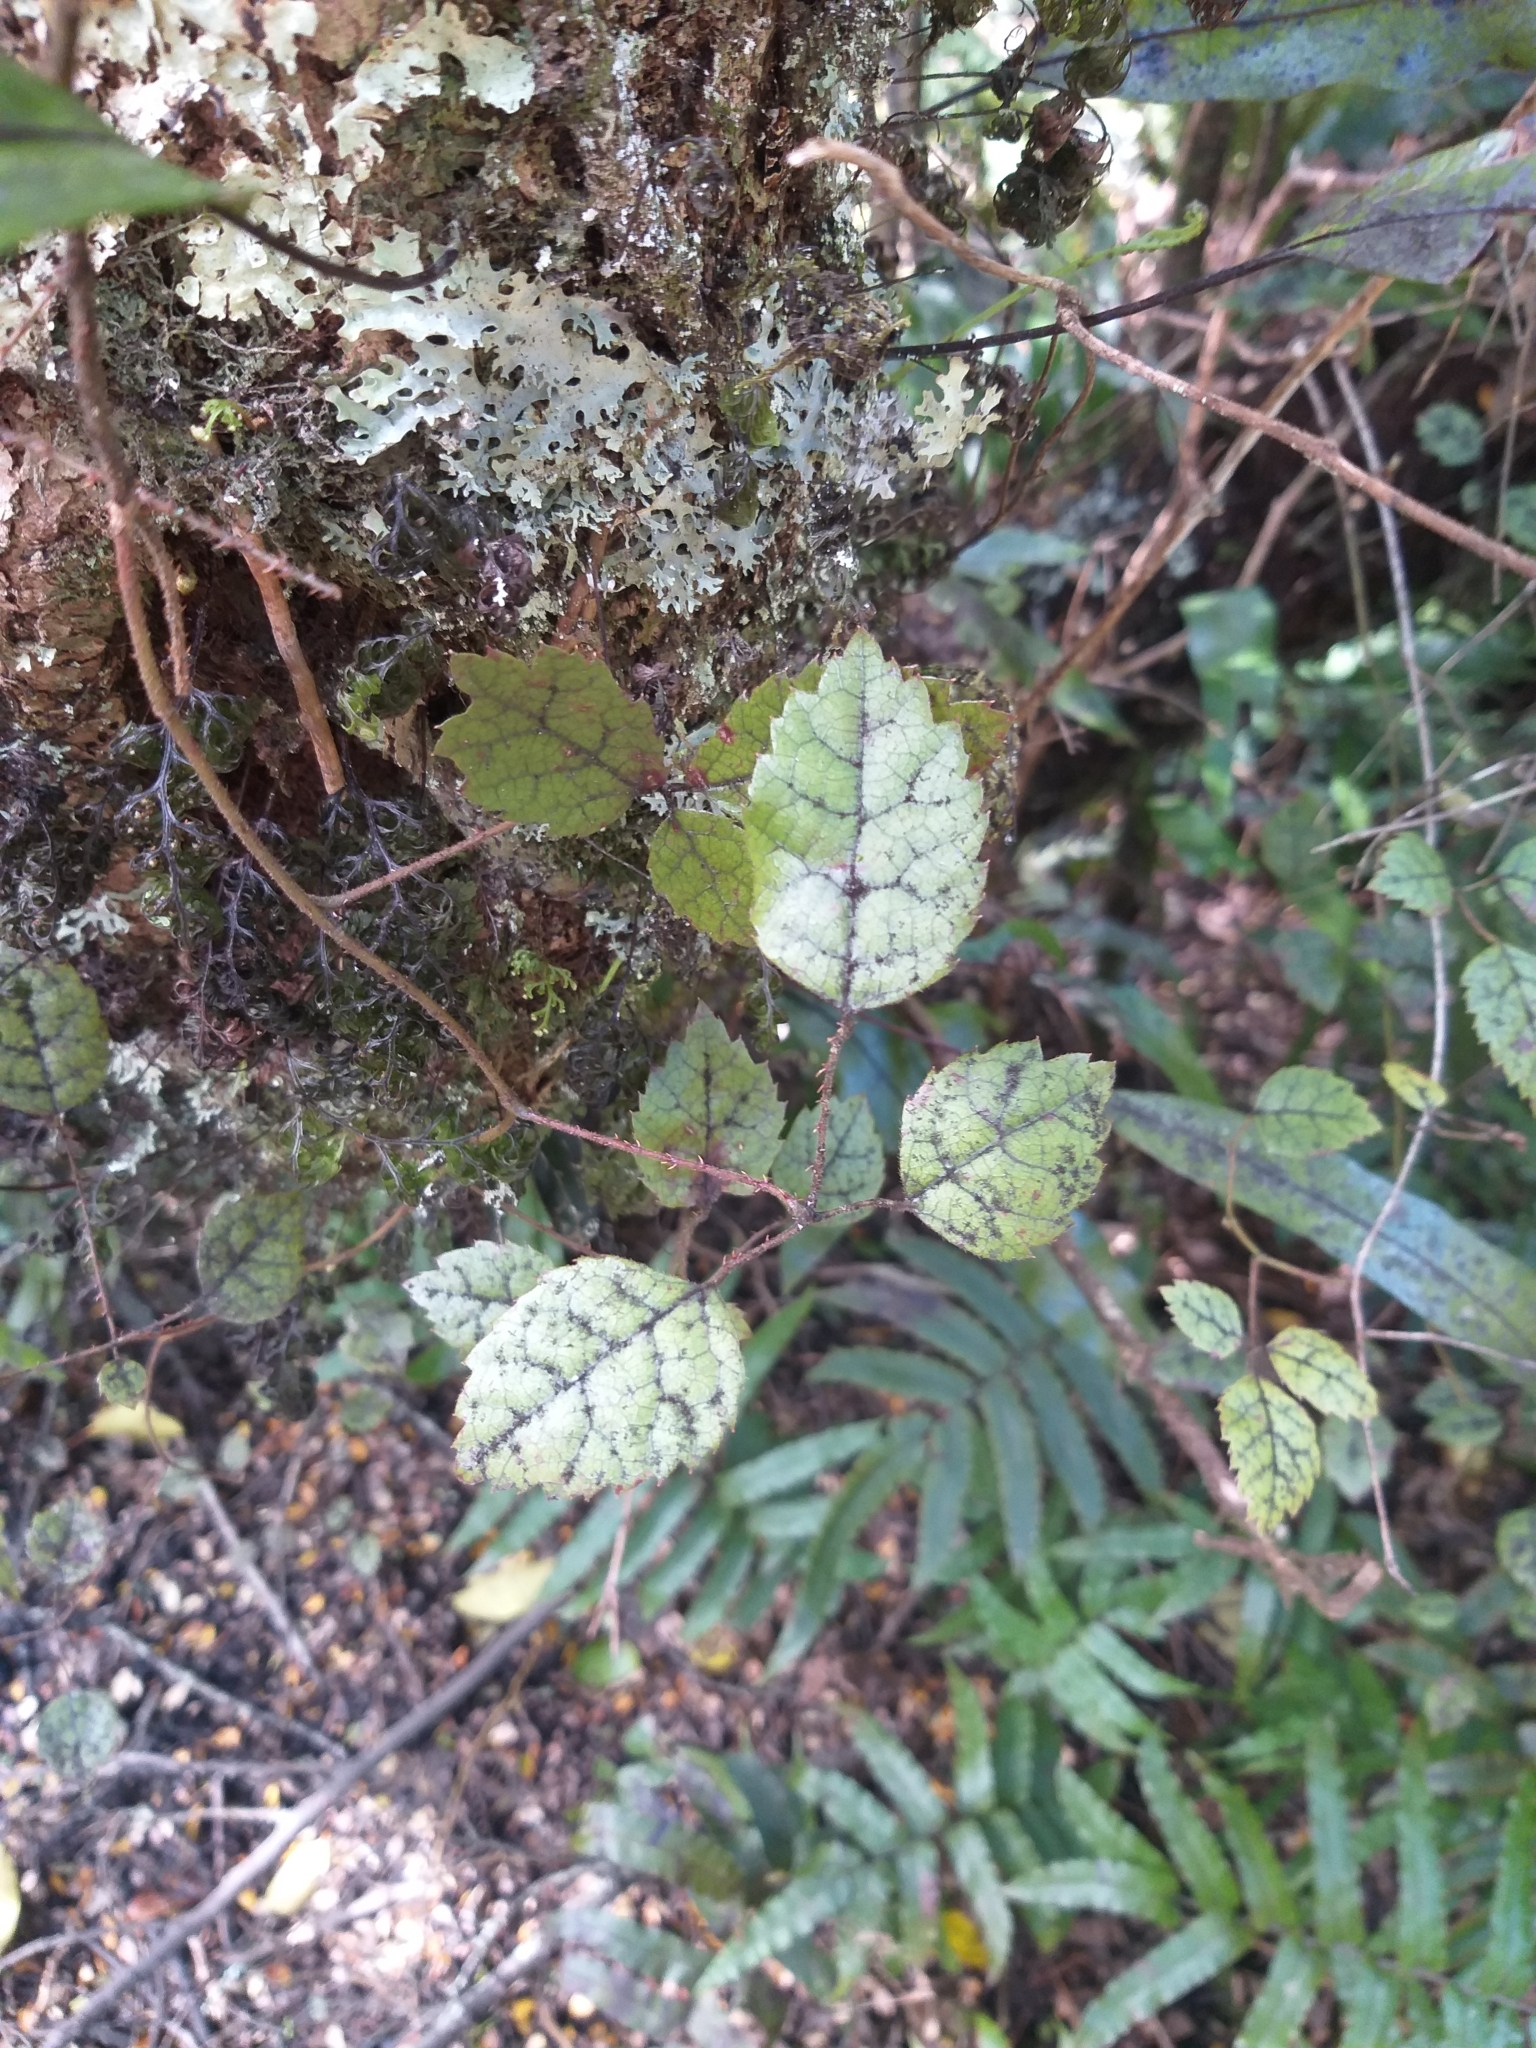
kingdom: Plantae
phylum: Tracheophyta
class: Magnoliopsida
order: Rosales
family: Rosaceae
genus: Rubus
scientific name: Rubus australis
